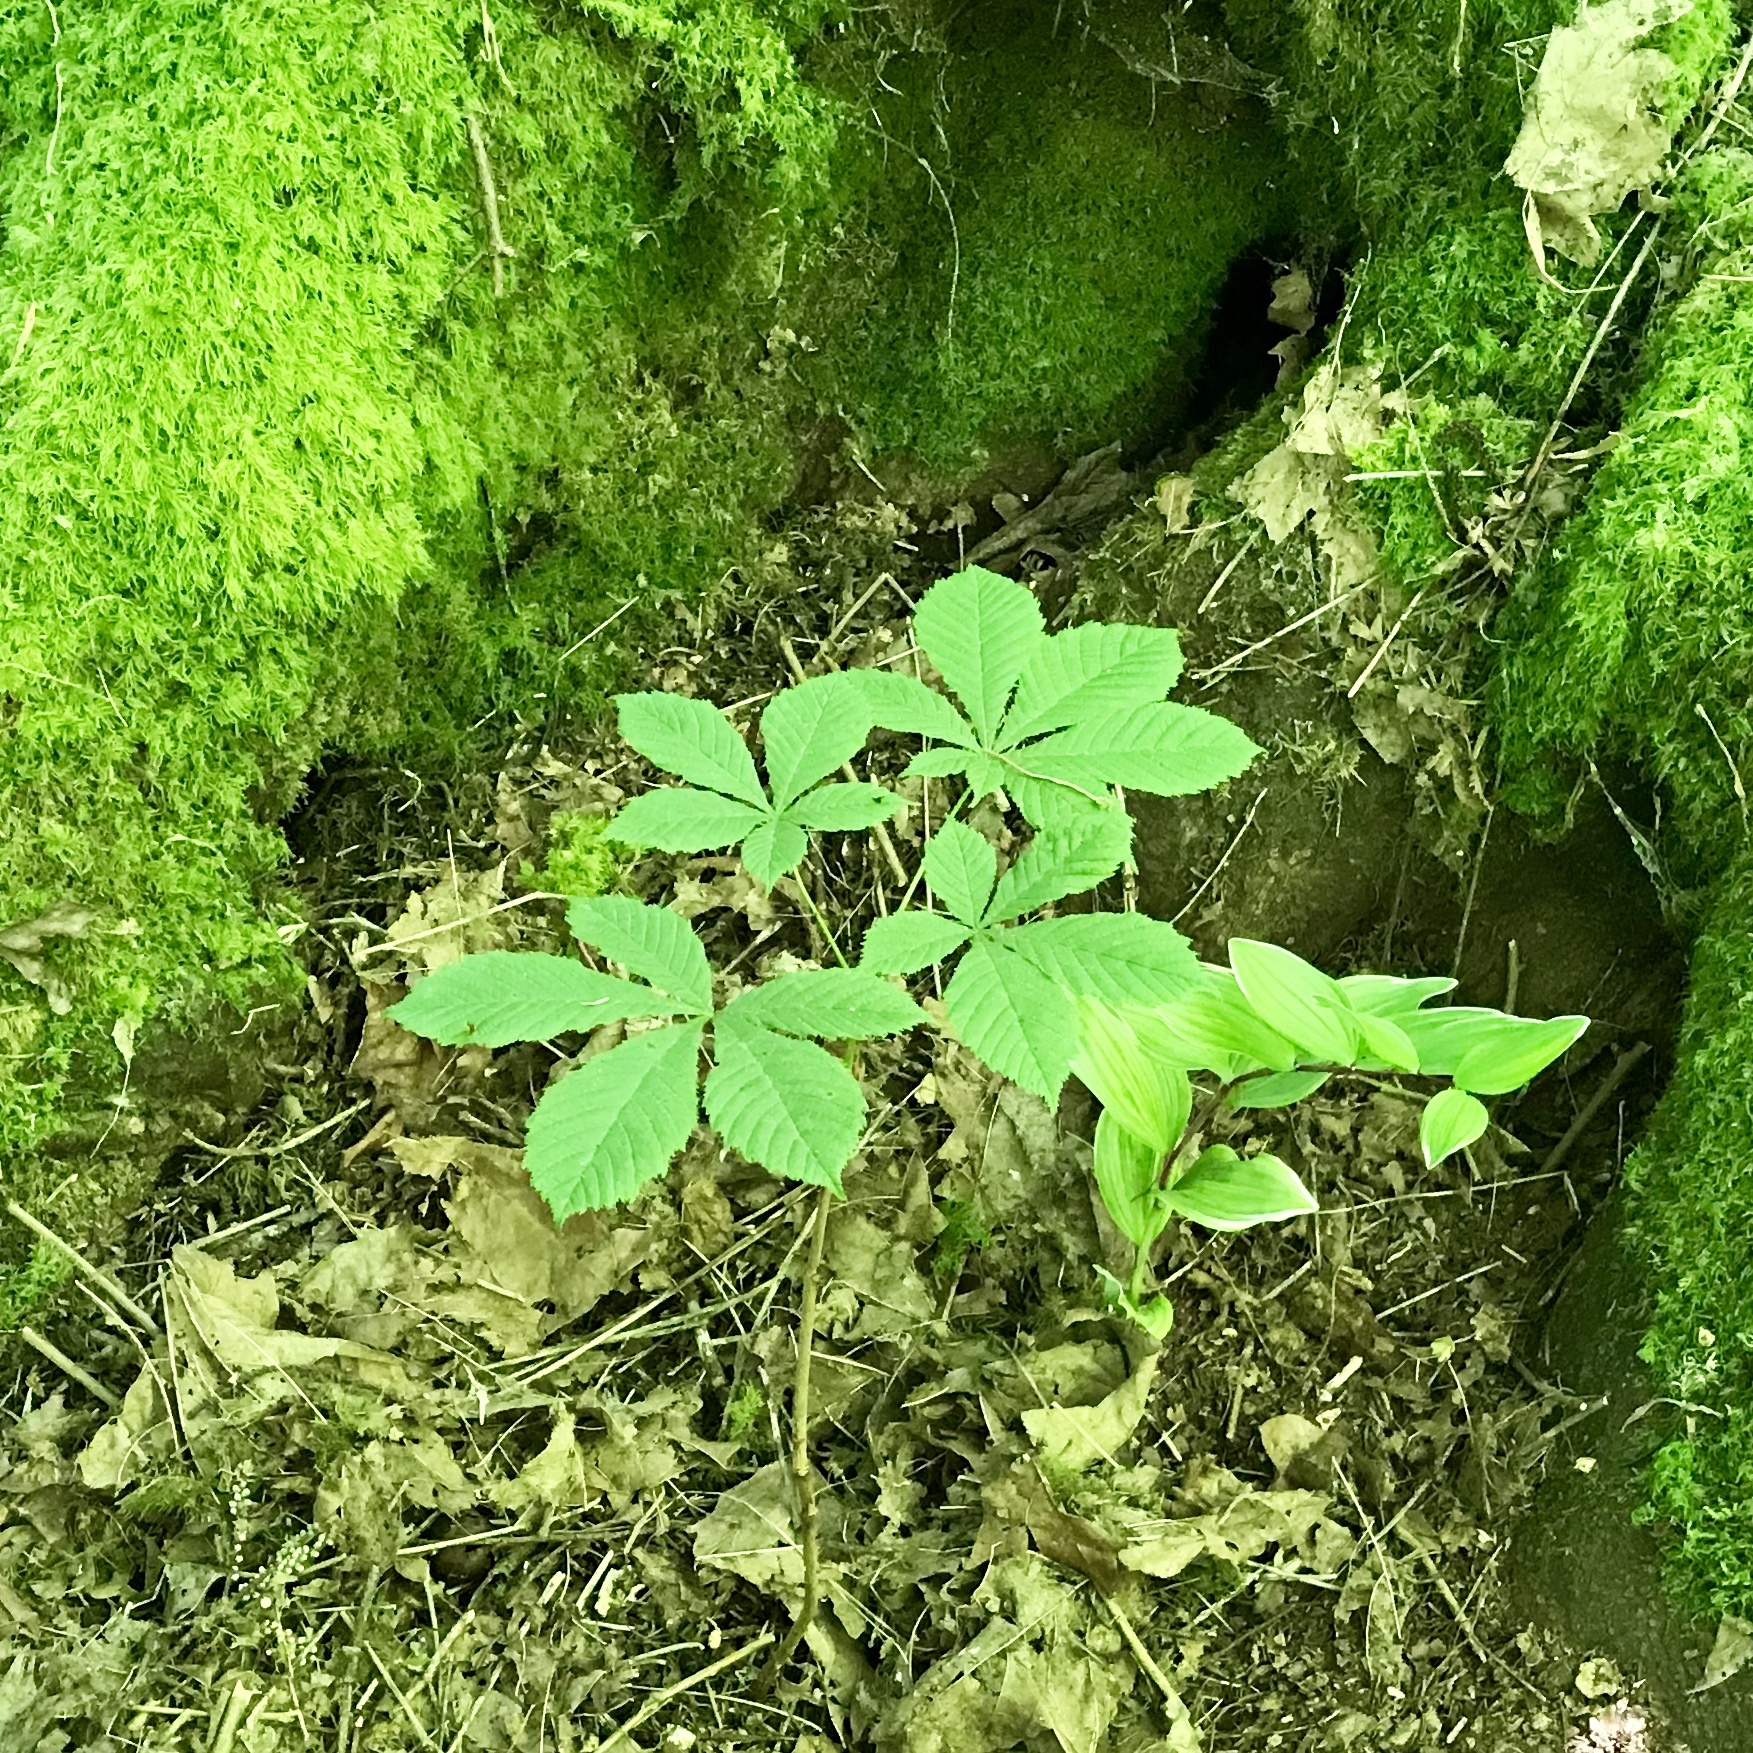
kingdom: Plantae
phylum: Tracheophyta
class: Magnoliopsida
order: Sapindales
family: Sapindaceae
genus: Aesculus
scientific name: Aesculus hippocastanum
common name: Horse-chestnut
